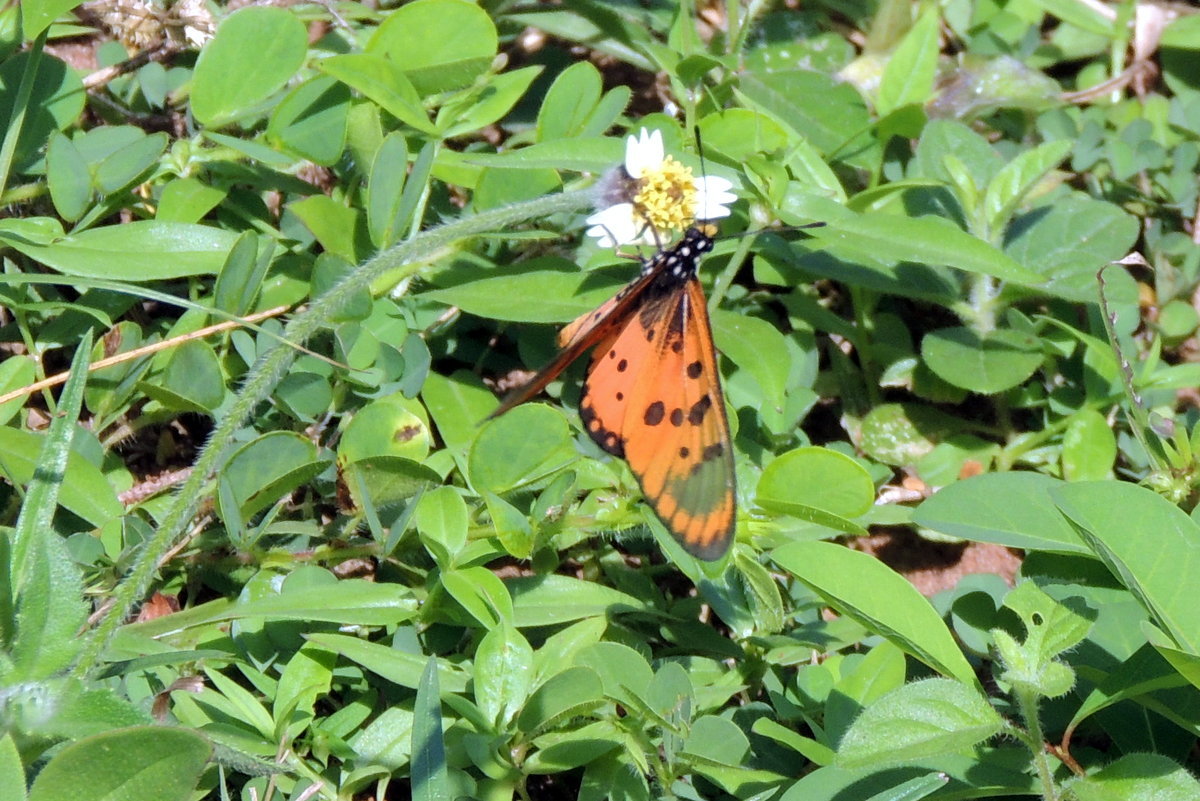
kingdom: Animalia
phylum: Arthropoda
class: Insecta
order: Lepidoptera
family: Nymphalidae
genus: Acraea
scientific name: Acraea neobule
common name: Dancing acraea
